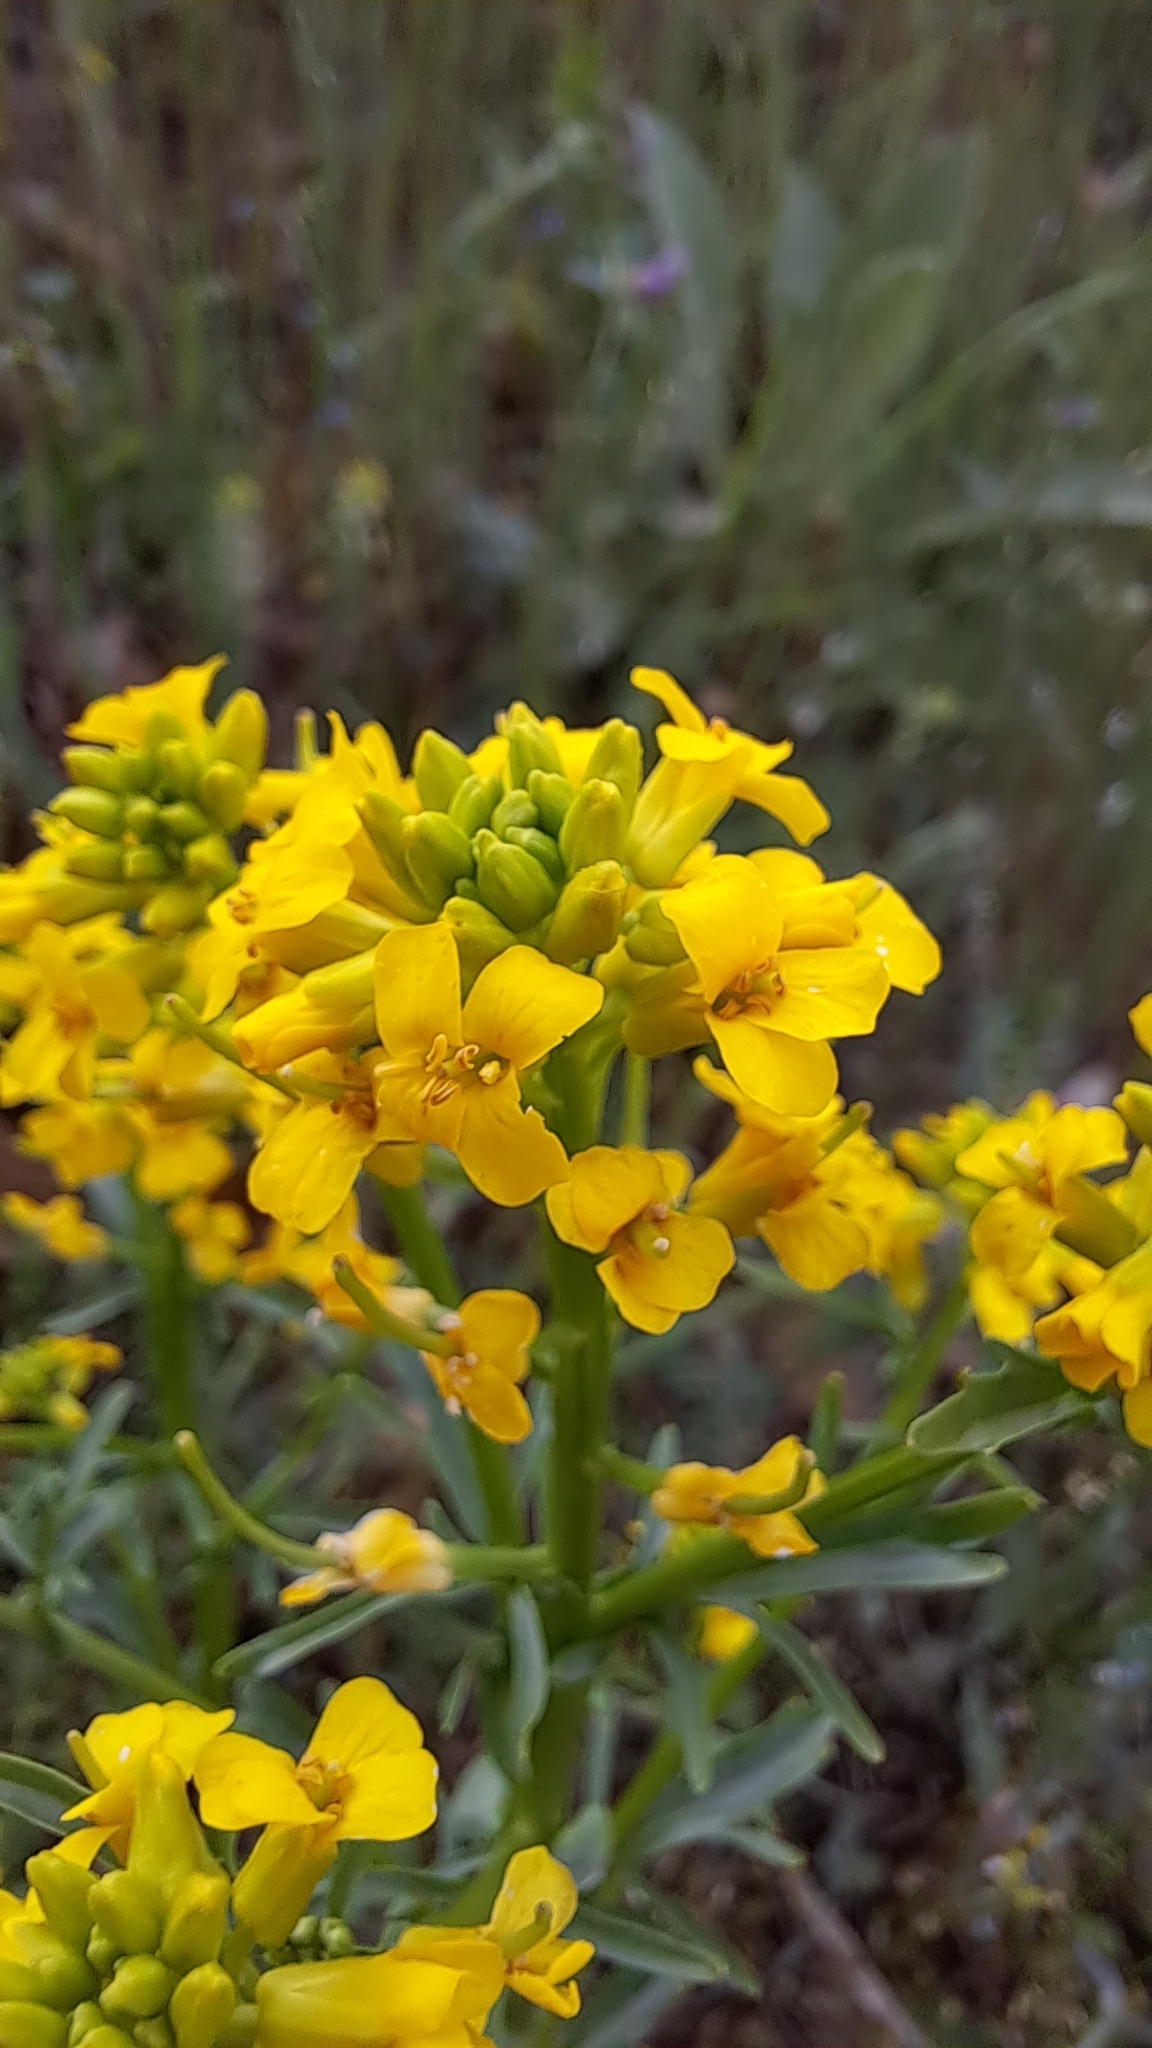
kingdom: Plantae
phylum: Tracheophyta
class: Magnoliopsida
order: Brassicales
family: Brassicaceae
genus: Barbarea
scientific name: Barbarea vulgaris
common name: Cressy-greens
